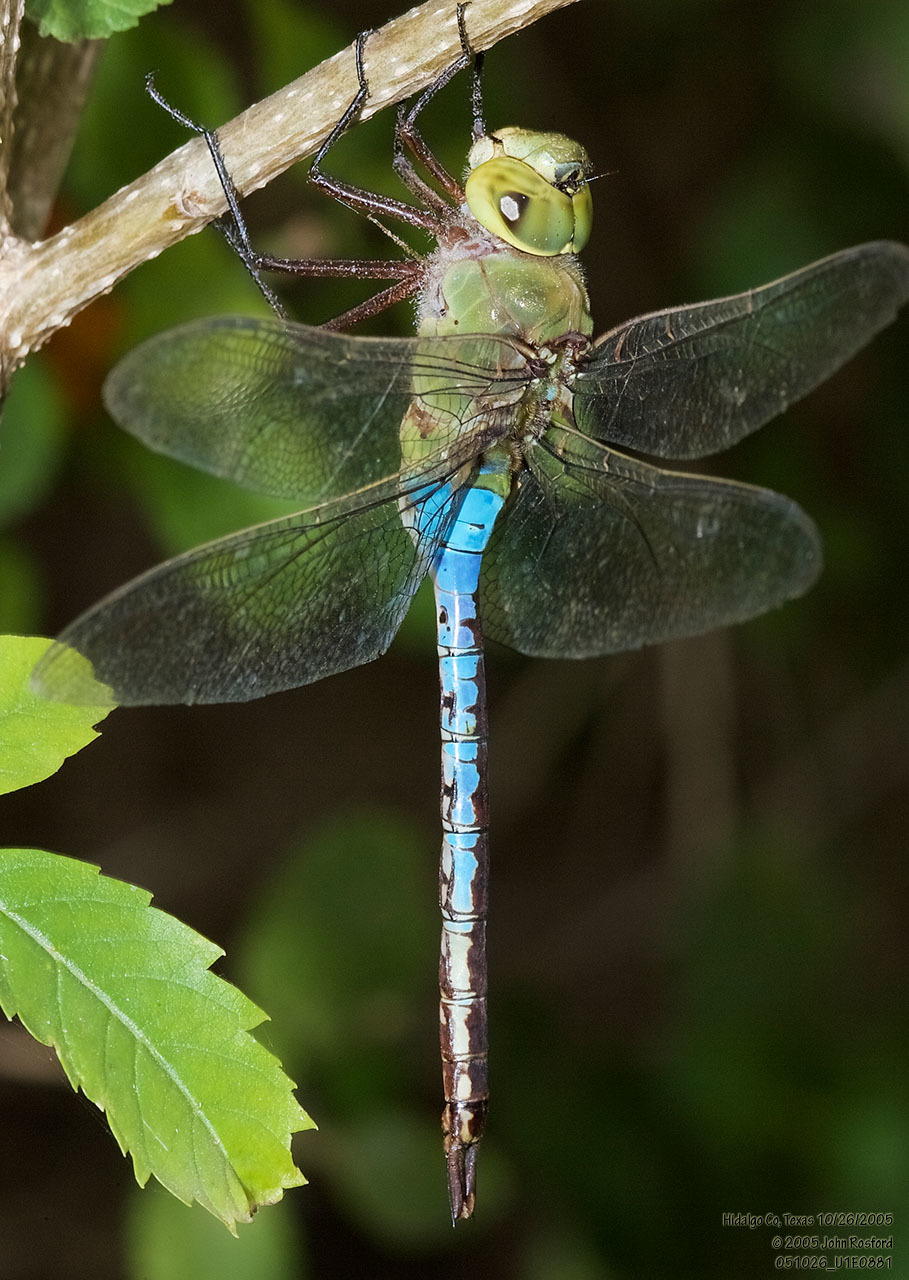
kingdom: Animalia
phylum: Arthropoda
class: Insecta
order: Odonata
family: Aeshnidae
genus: Anax
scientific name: Anax junius
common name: Common green darner
